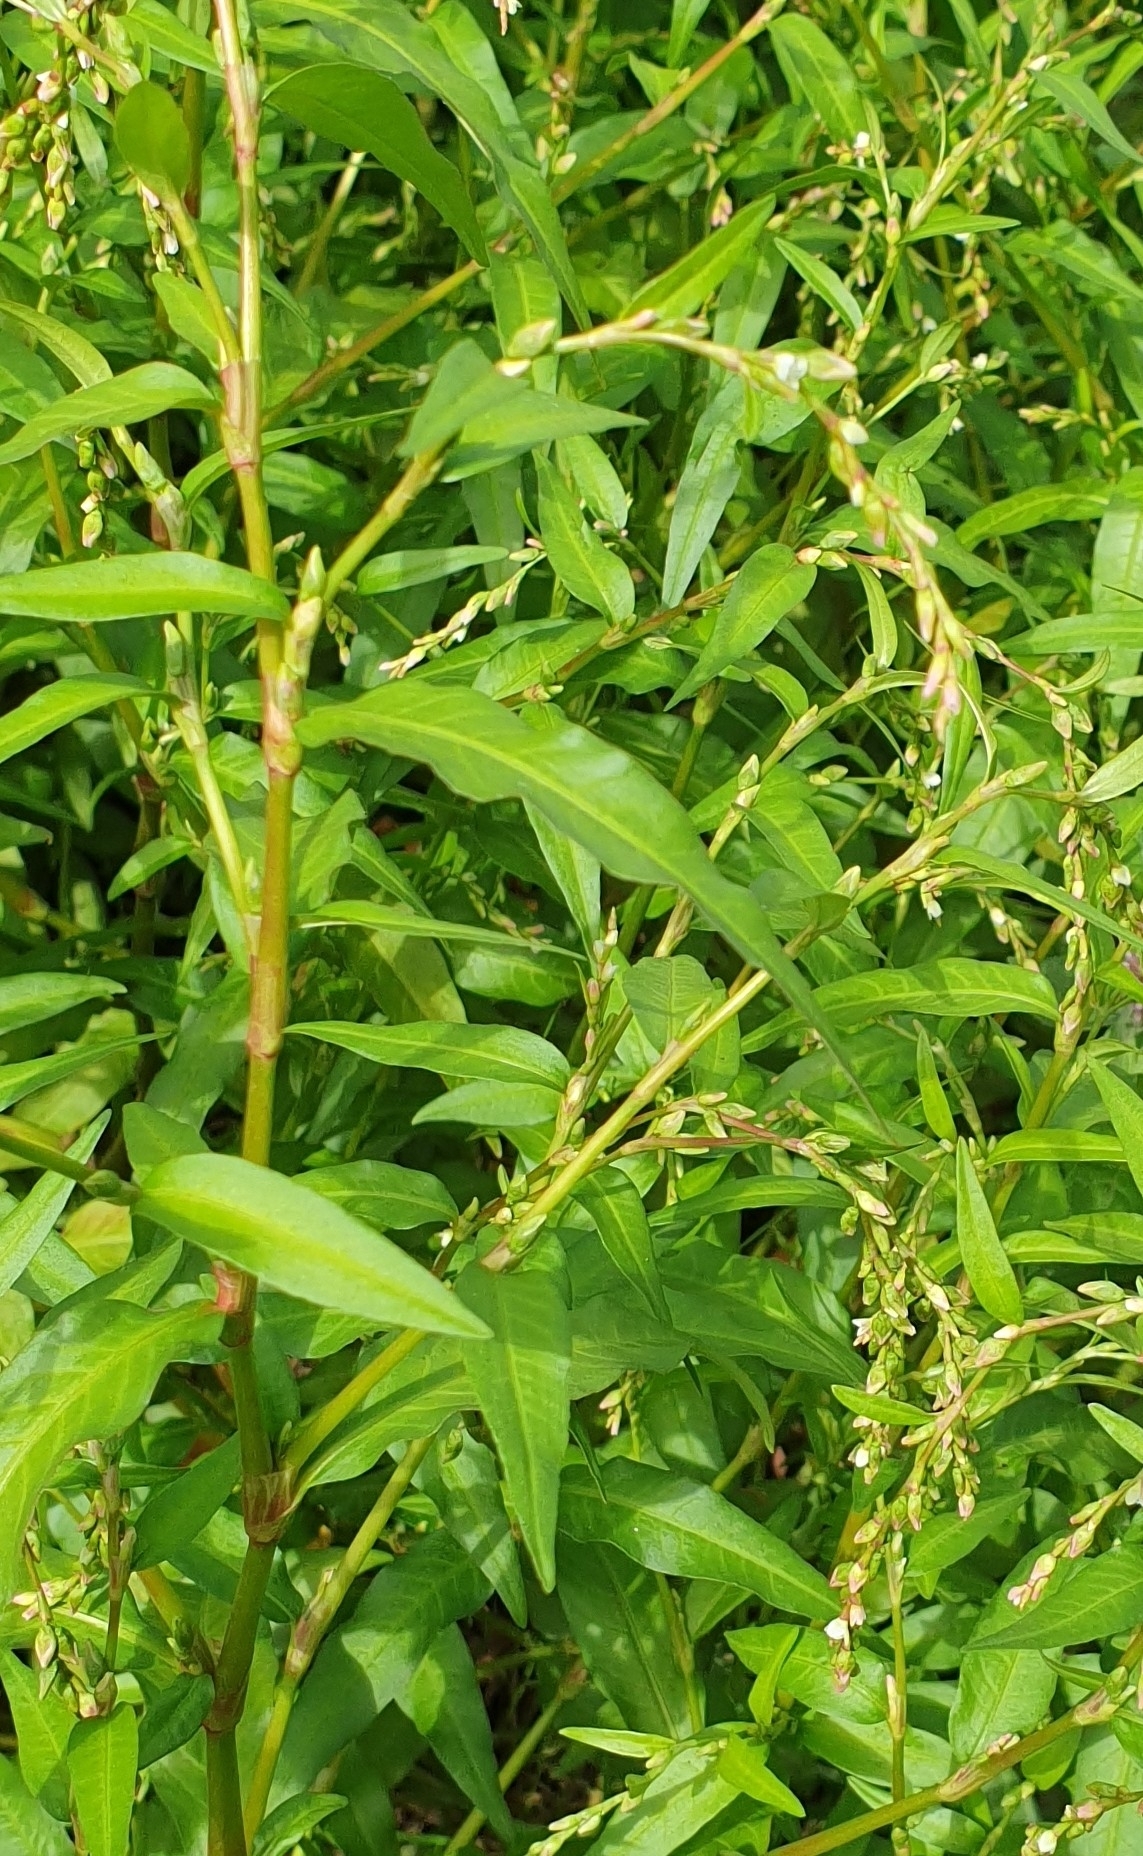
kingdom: Plantae
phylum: Tracheophyta
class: Magnoliopsida
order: Caryophyllales
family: Polygonaceae
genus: Persicaria
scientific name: Persicaria hydropiper
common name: Water-pepper
